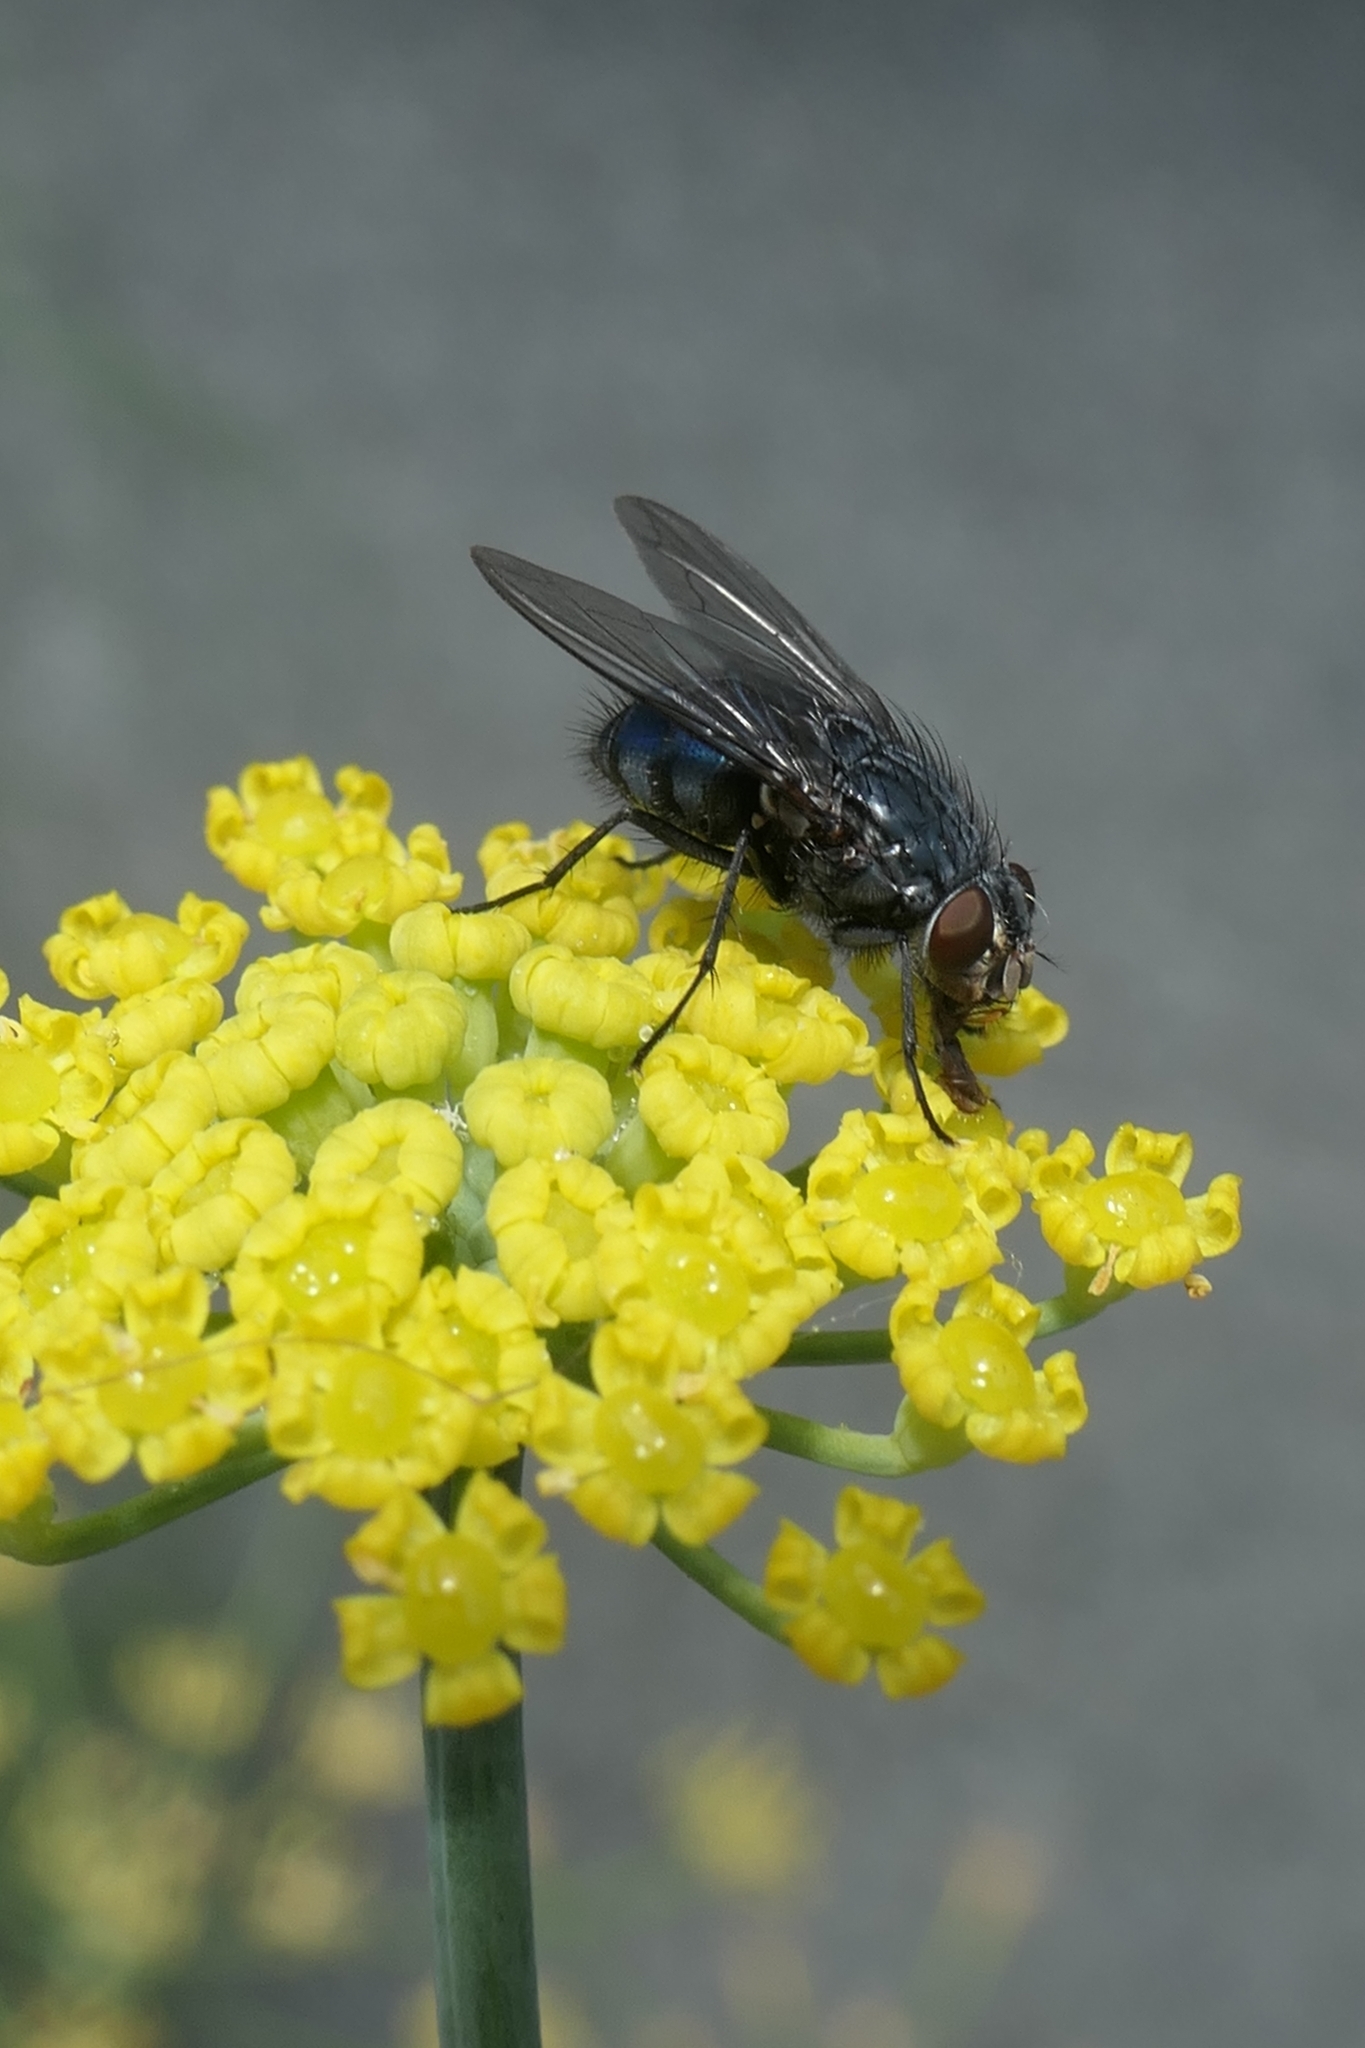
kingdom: Animalia
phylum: Arthropoda
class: Insecta
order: Diptera
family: Calliphoridae
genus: Calliphora
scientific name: Calliphora vicina
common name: Common blow flie
